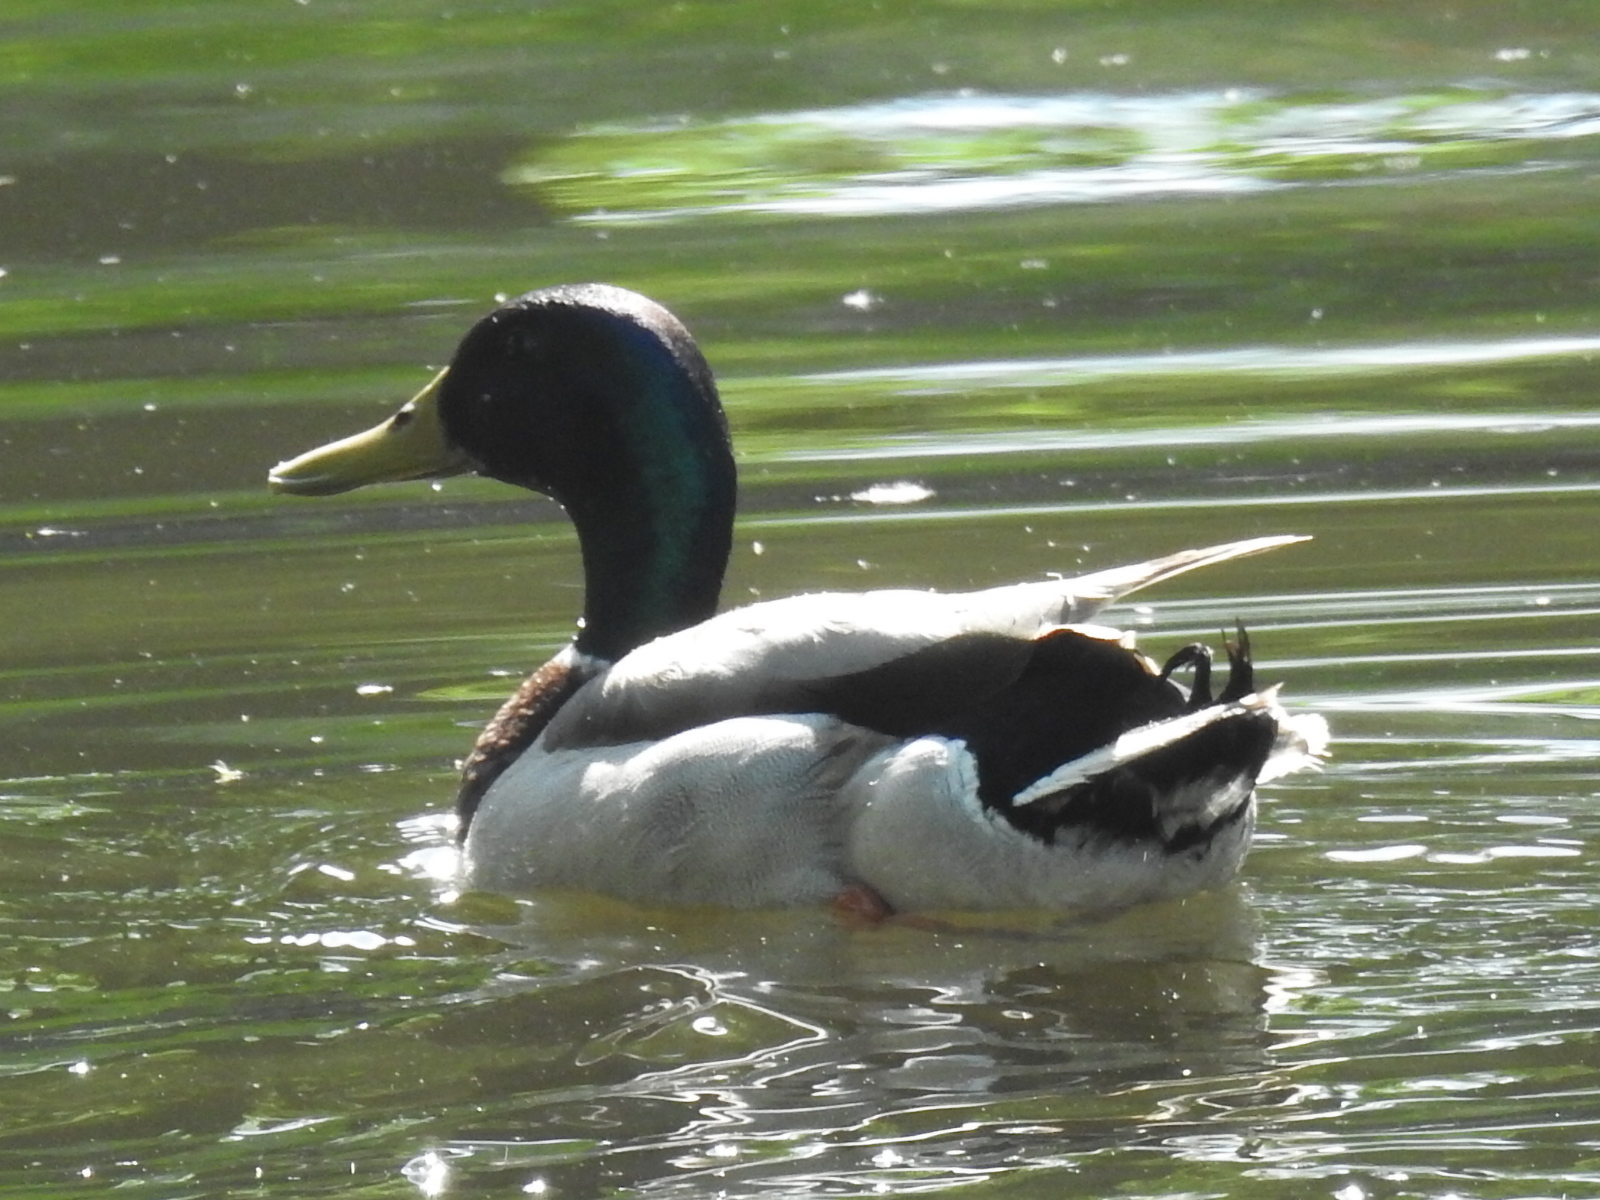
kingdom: Animalia
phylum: Chordata
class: Aves
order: Anseriformes
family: Anatidae
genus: Anas
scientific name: Anas platyrhynchos
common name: Mallard
